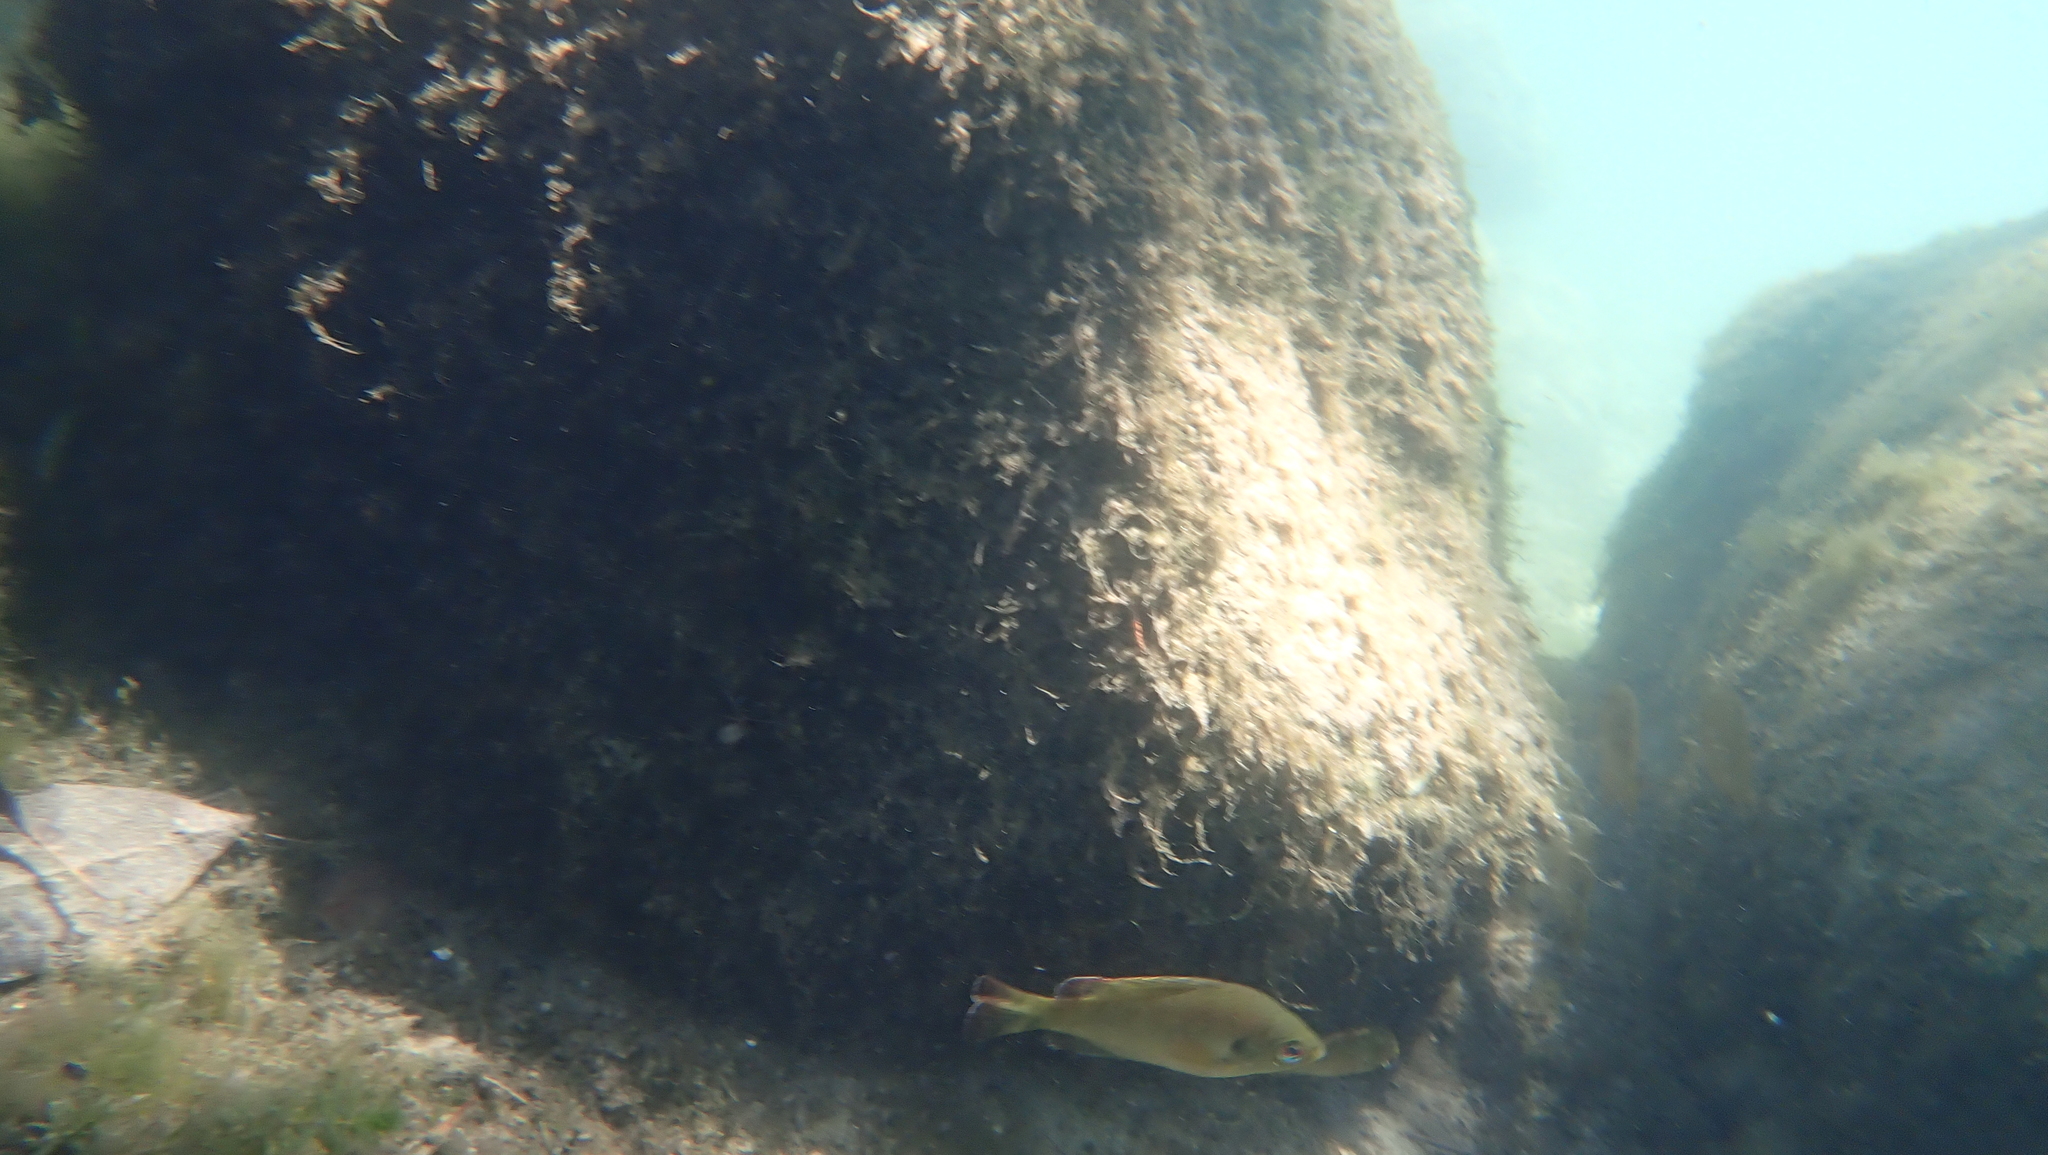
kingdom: Animalia
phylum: Chordata
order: Perciformes
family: Centrarchidae
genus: Lepomis
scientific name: Lepomis punctatus
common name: Spotted sunfish
